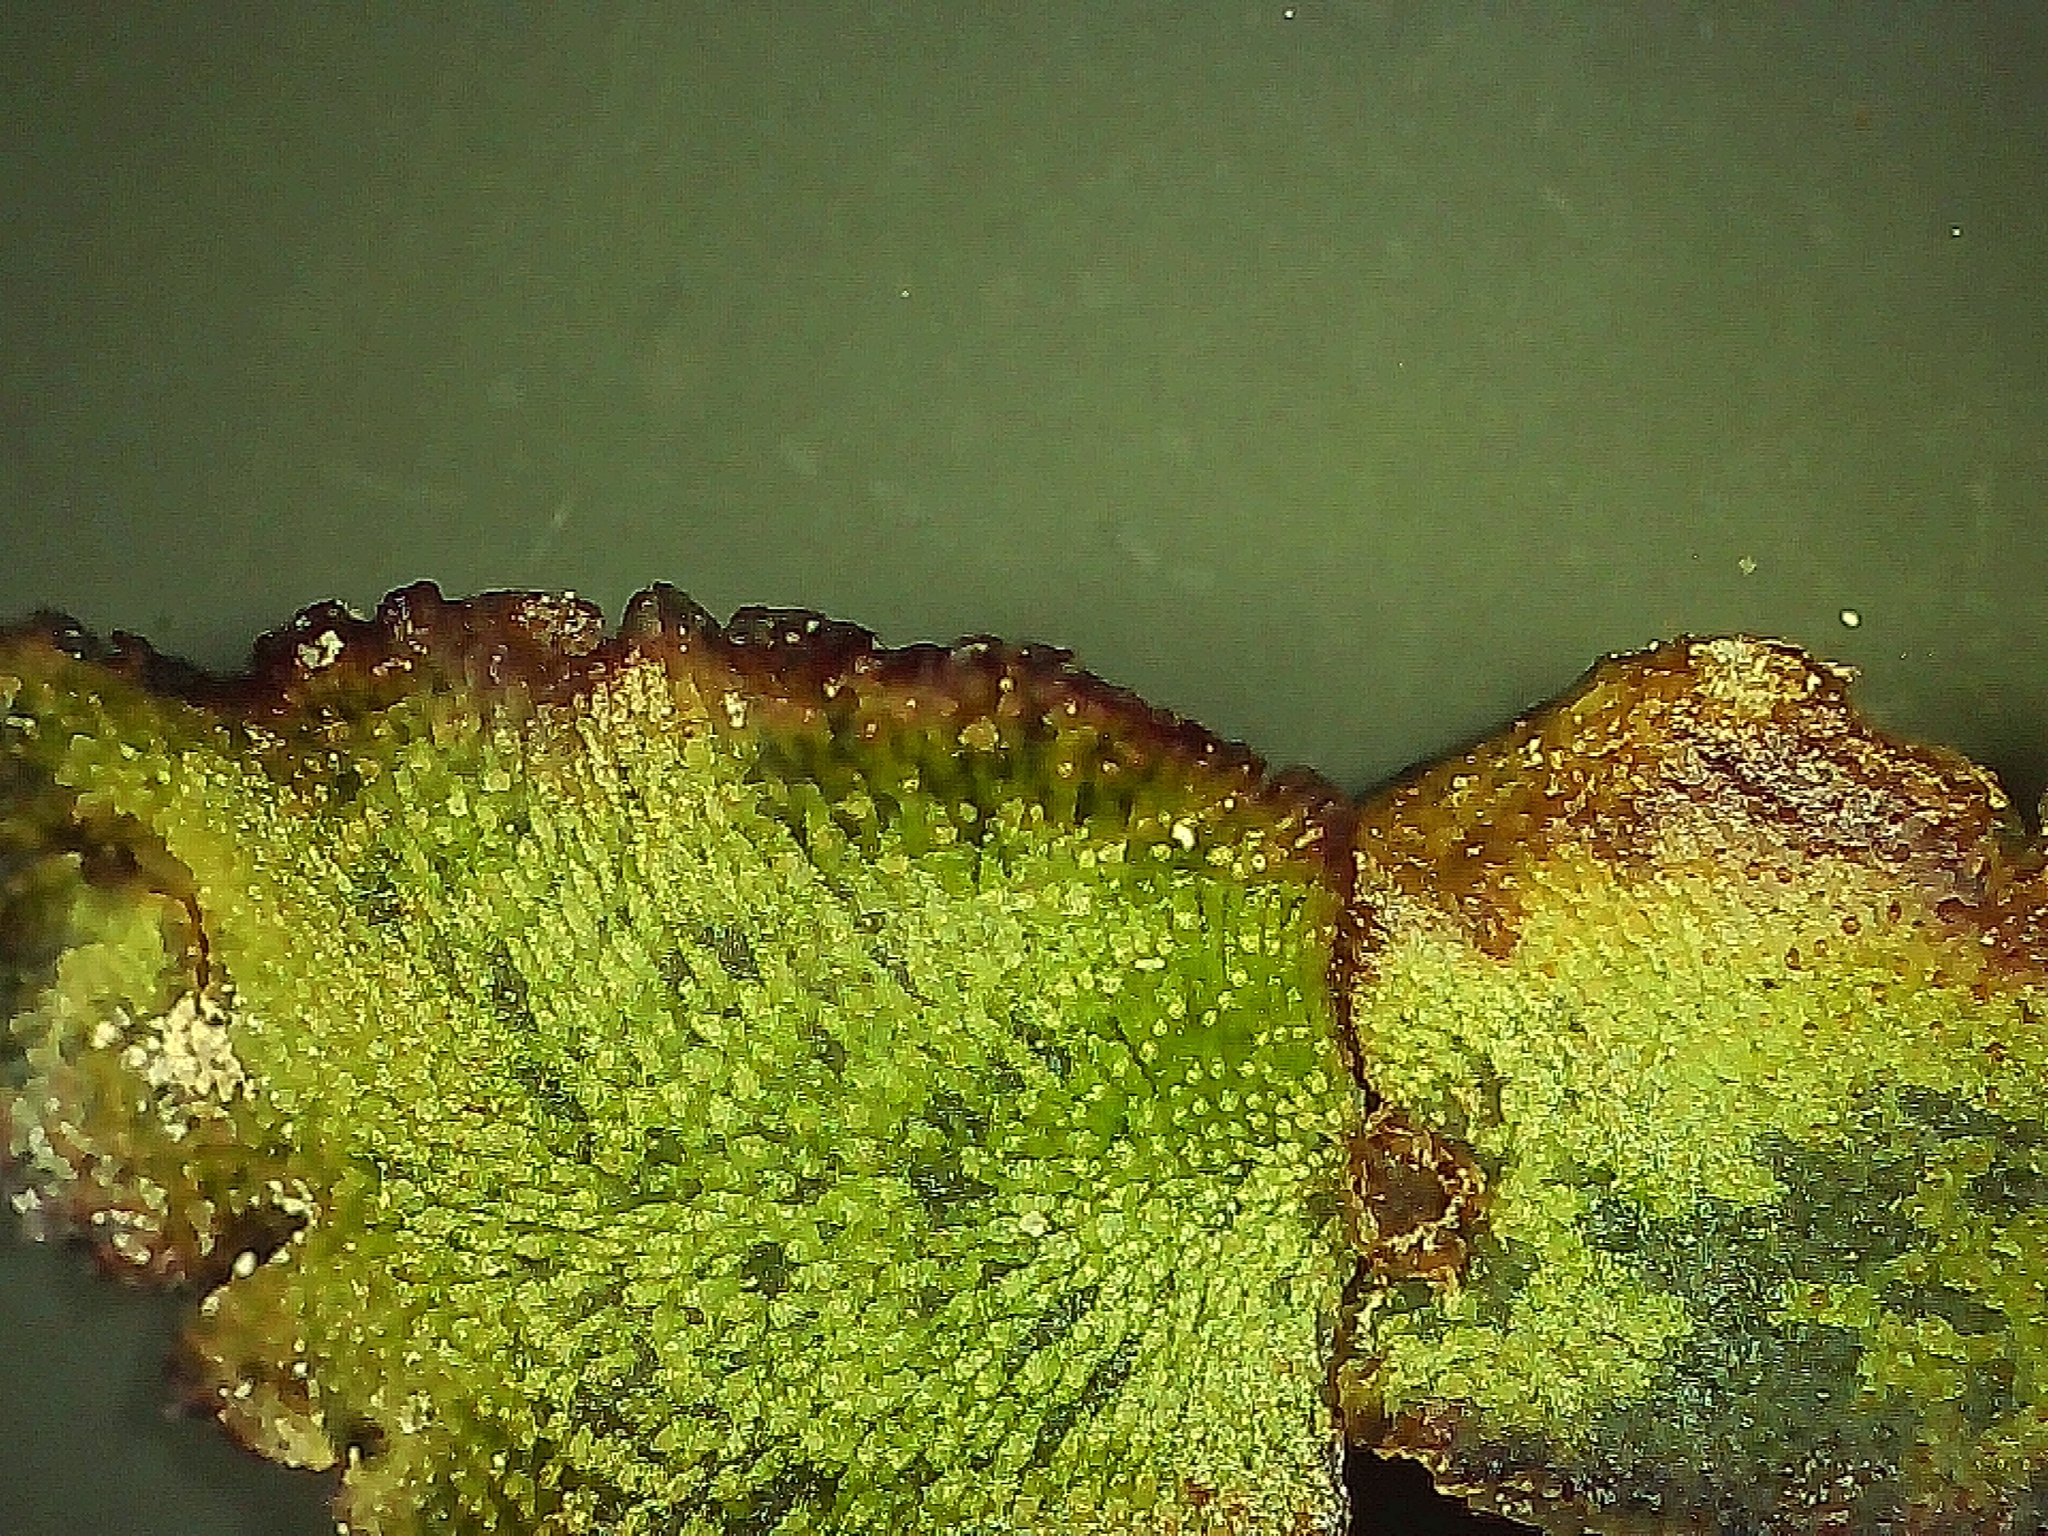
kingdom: Plantae
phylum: Marchantiophyta
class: Marchantiopsida
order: Marchantiales
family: Marchantiaceae
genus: Marchantia
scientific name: Marchantia quadrata
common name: Narrow mushroom-headed liverwort
